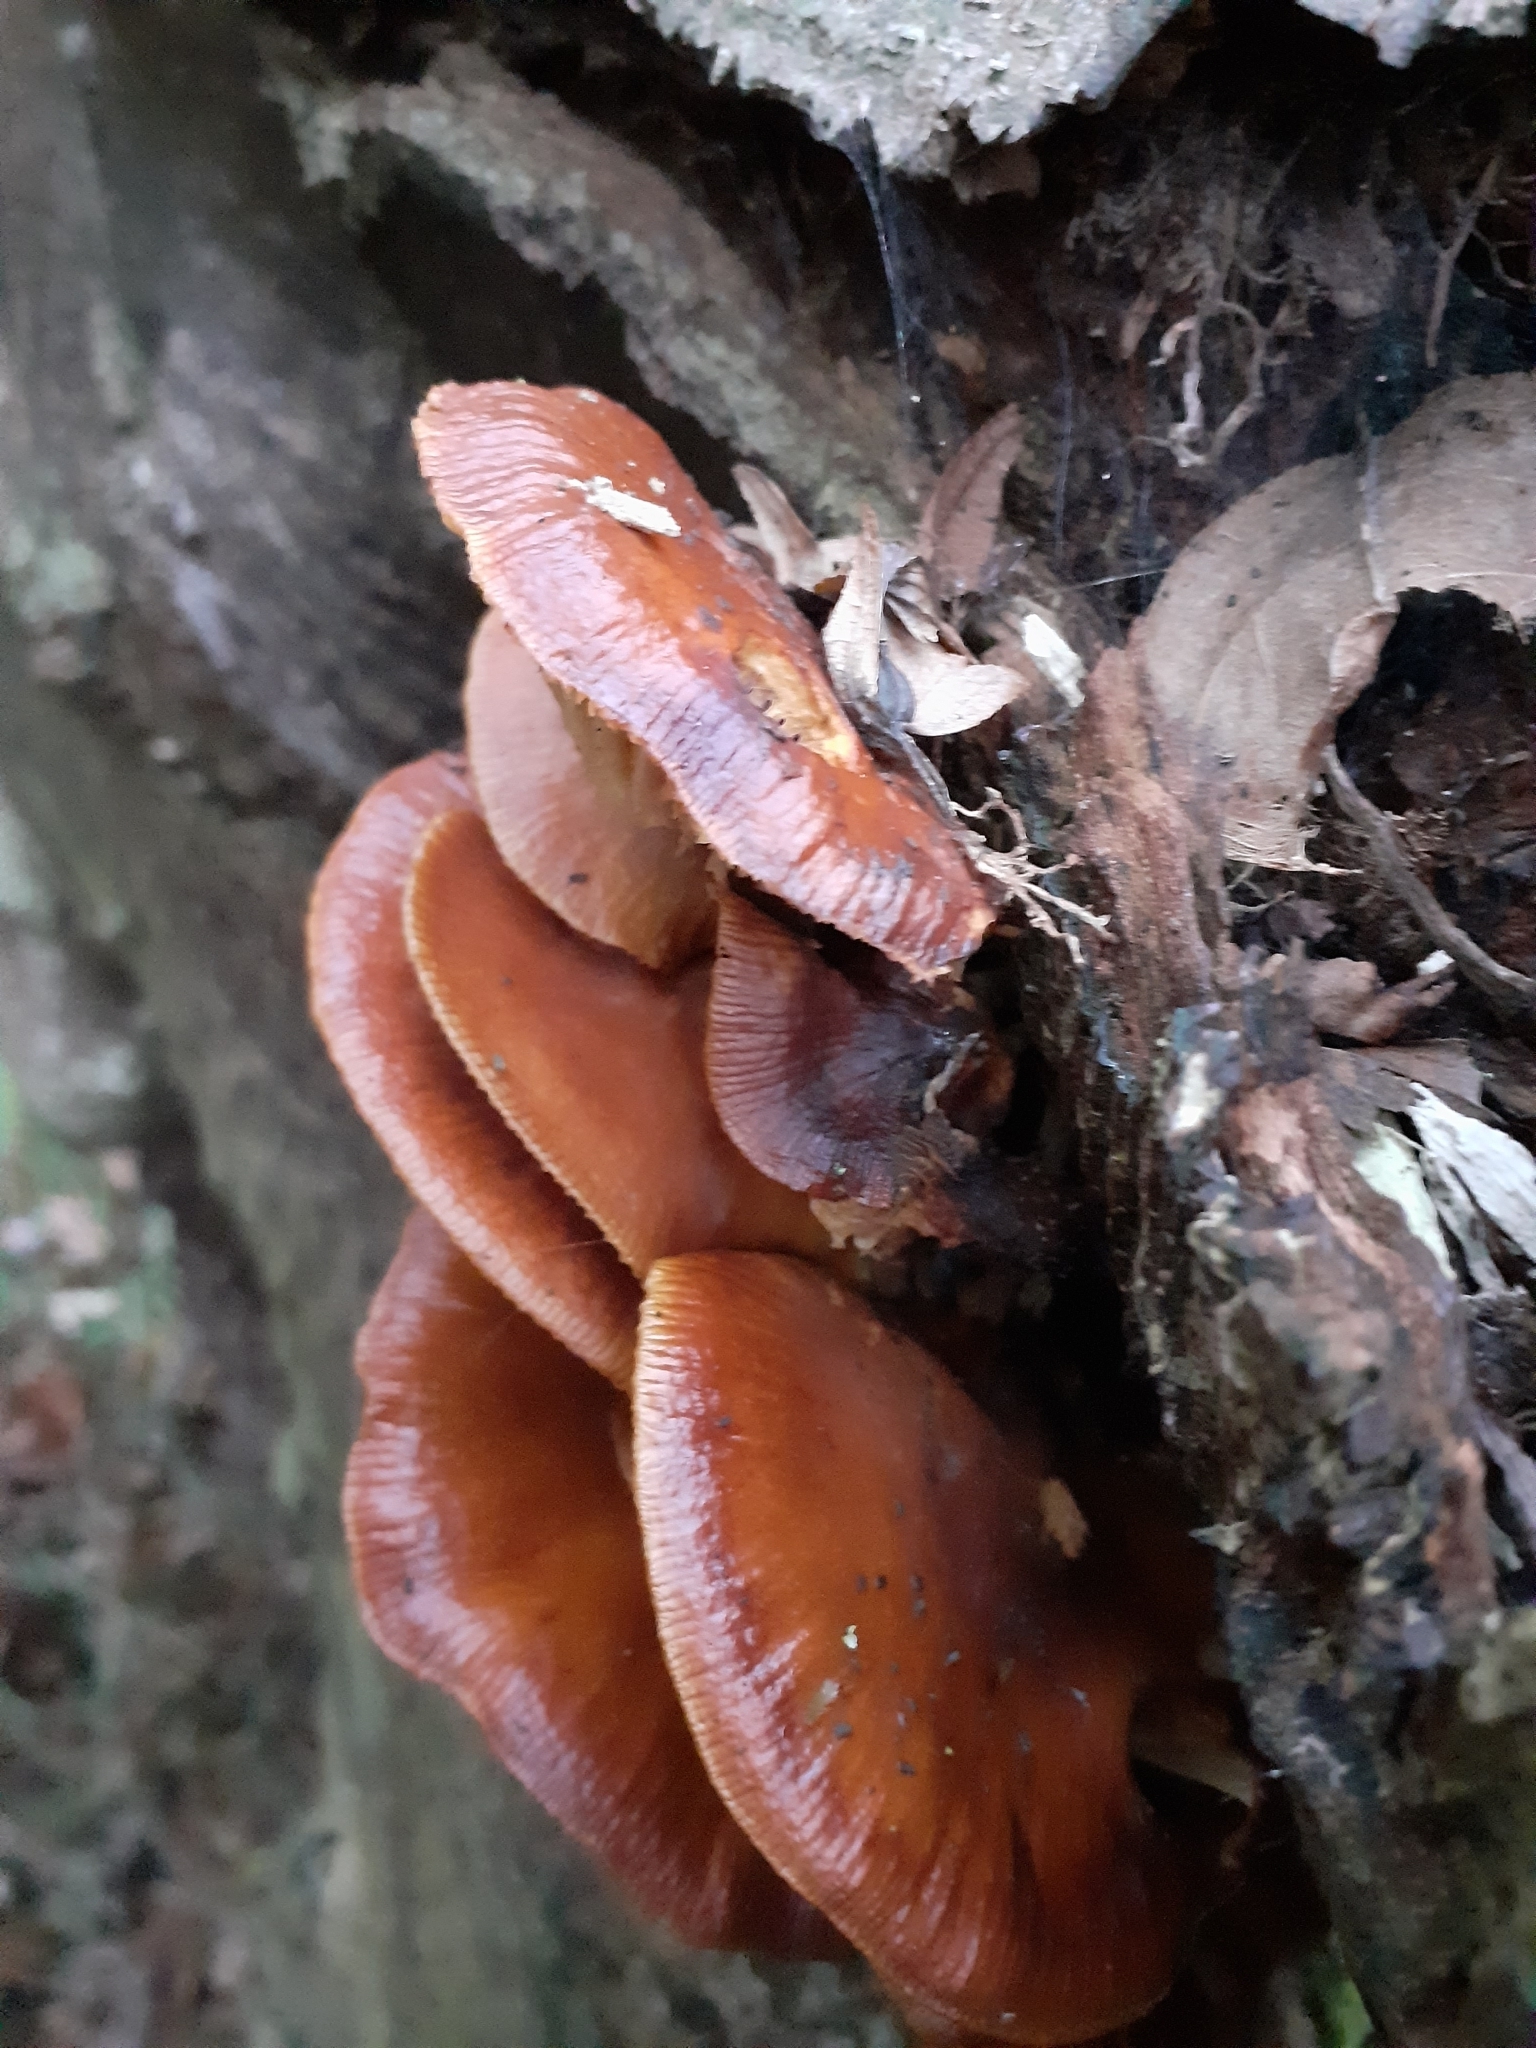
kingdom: Fungi
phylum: Basidiomycota
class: Agaricomycetes
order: Agaricales
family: Physalacriaceae
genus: Flammulina
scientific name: Flammulina
